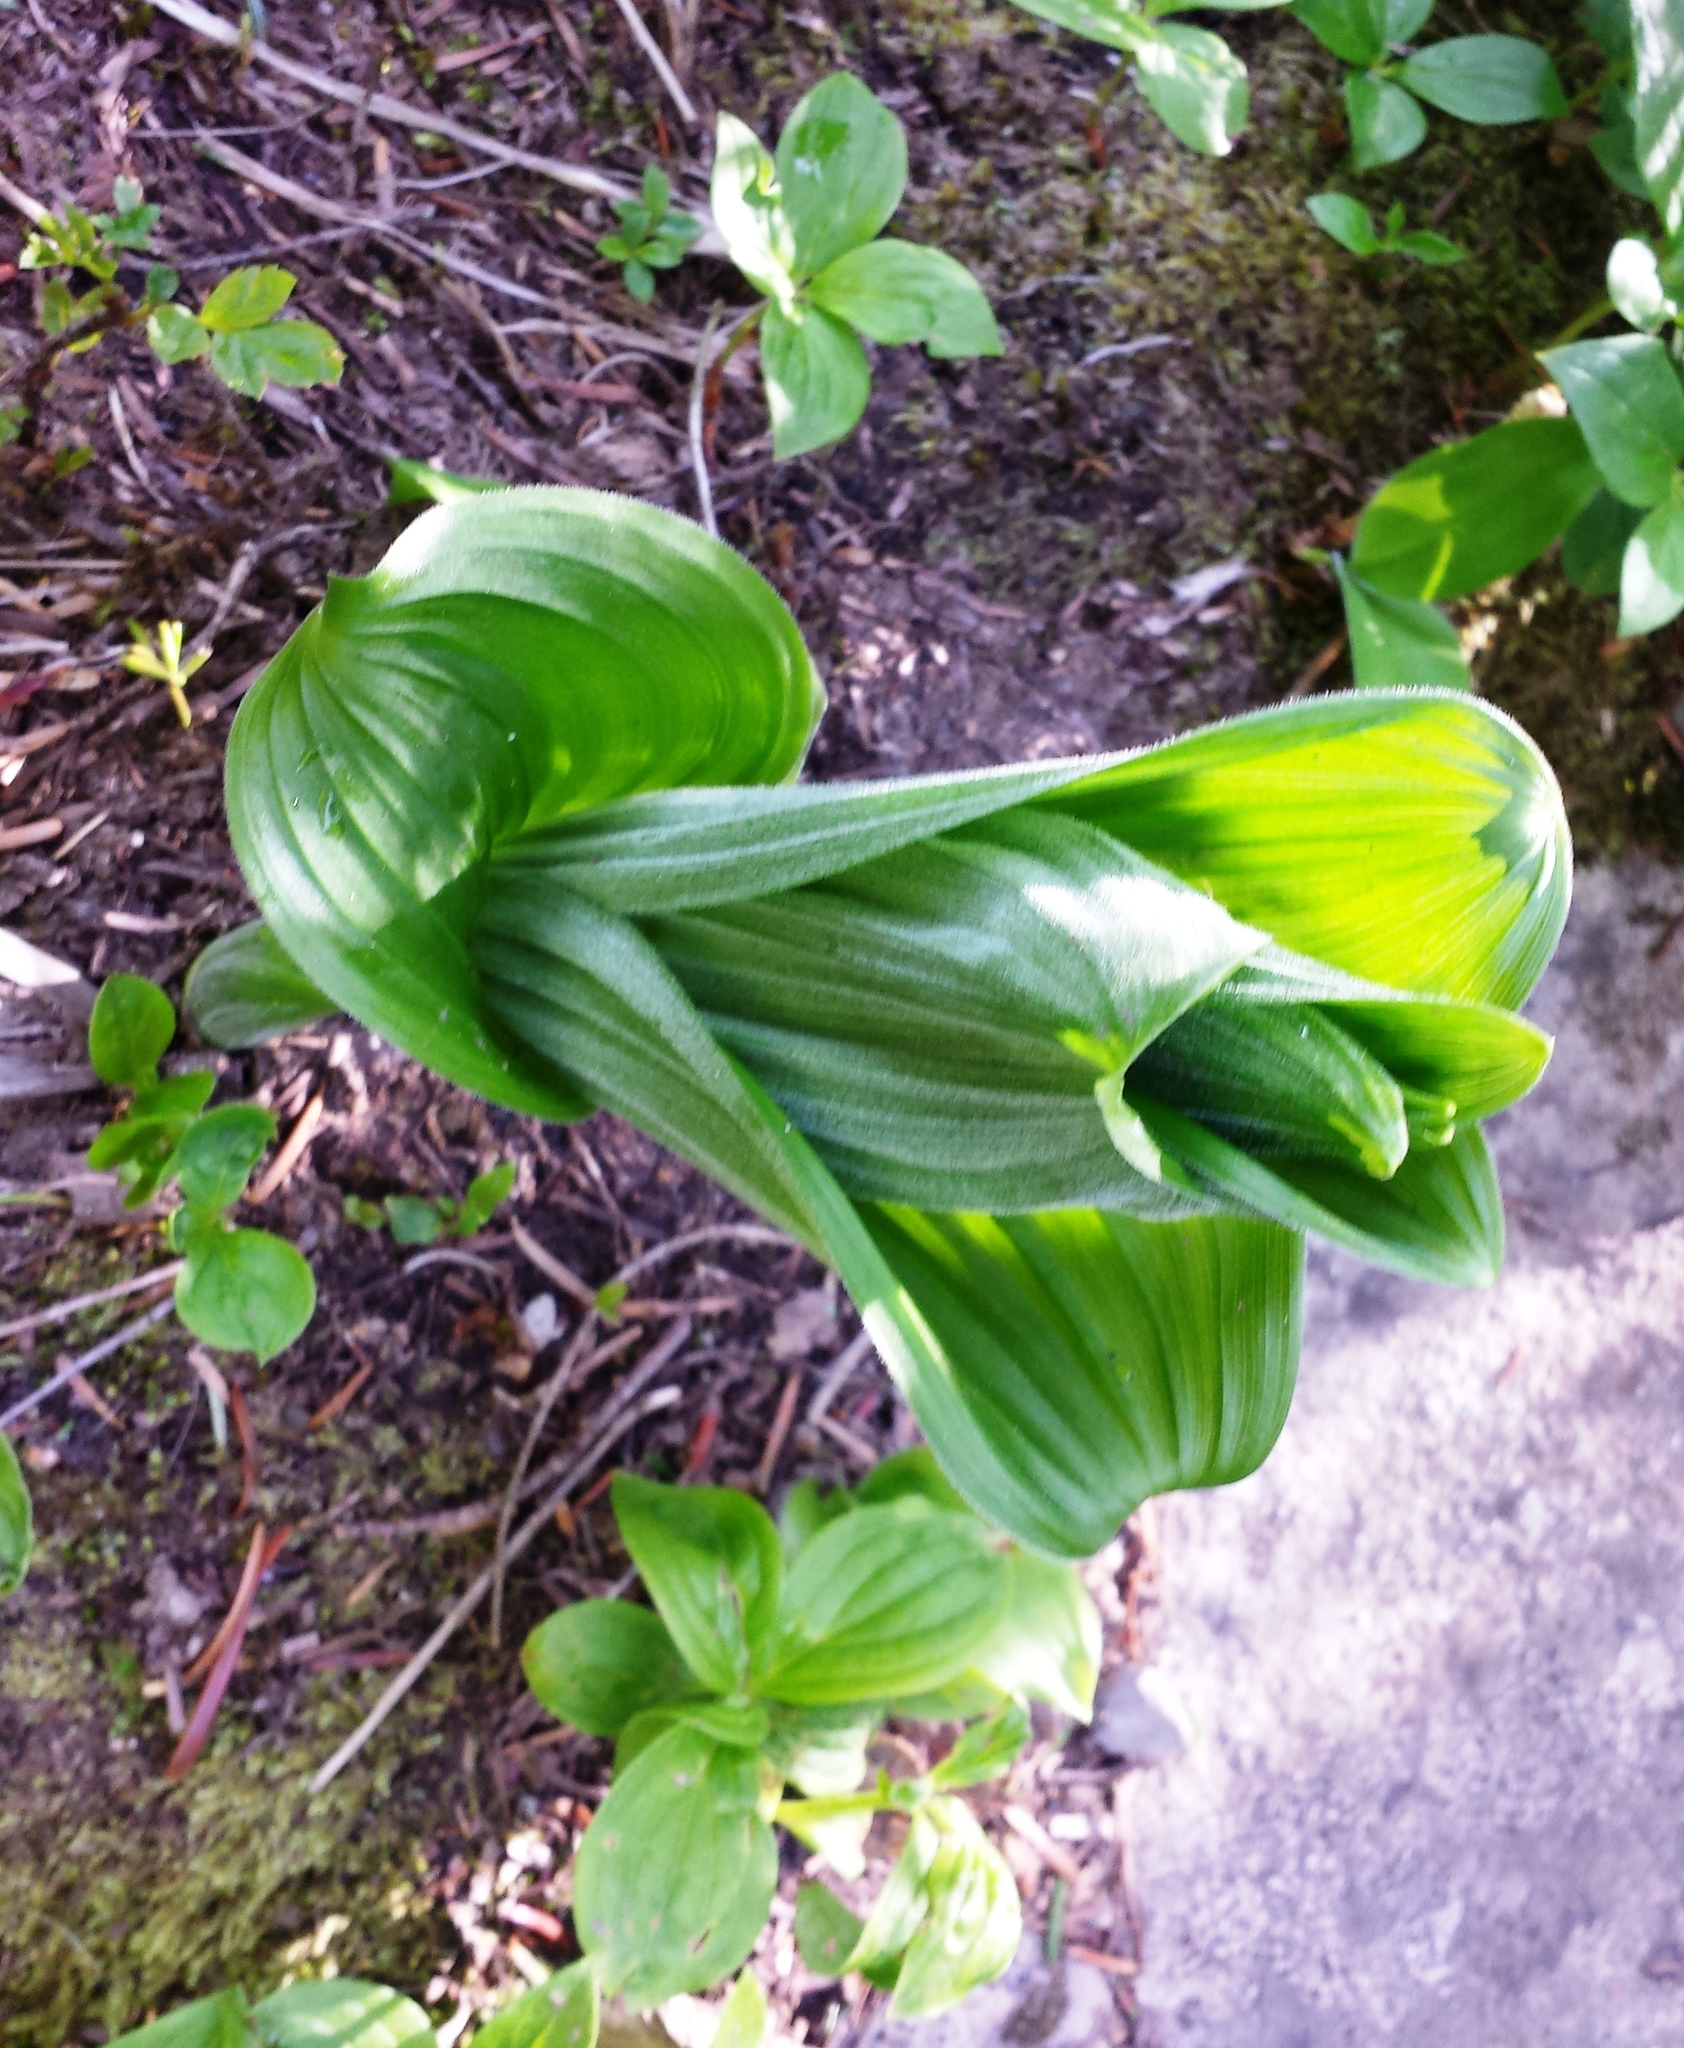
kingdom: Plantae
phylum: Tracheophyta
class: Liliopsida
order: Liliales
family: Melanthiaceae
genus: Veratrum
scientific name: Veratrum viride
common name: American false hellebore
